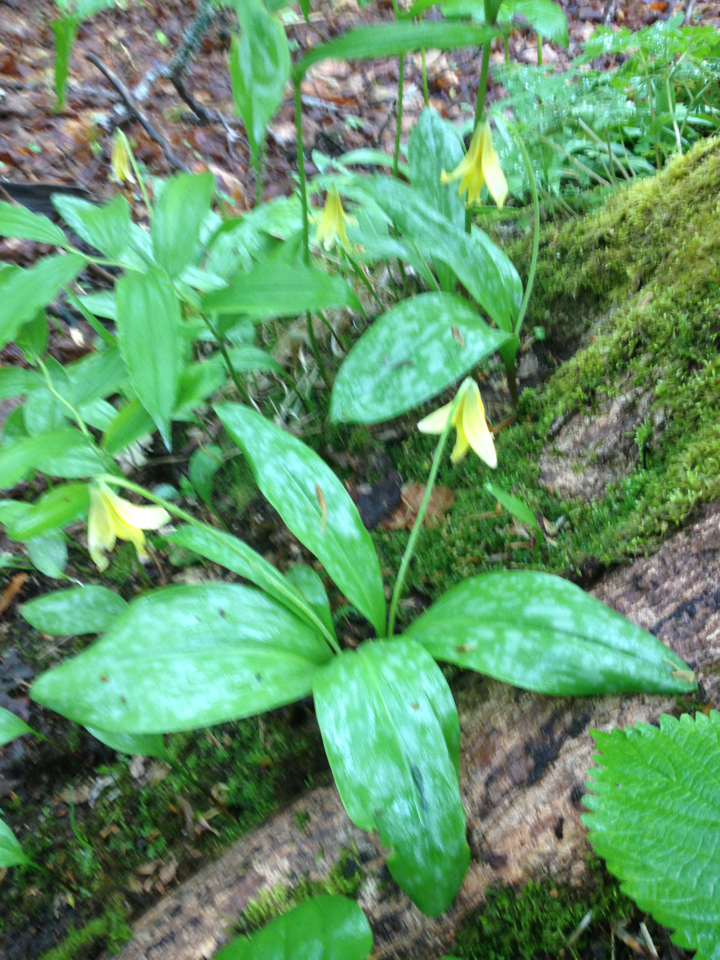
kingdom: Plantae
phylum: Tracheophyta
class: Liliopsida
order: Liliales
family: Liliaceae
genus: Erythronium
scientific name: Erythronium americanum
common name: Yellow adder's-tongue
